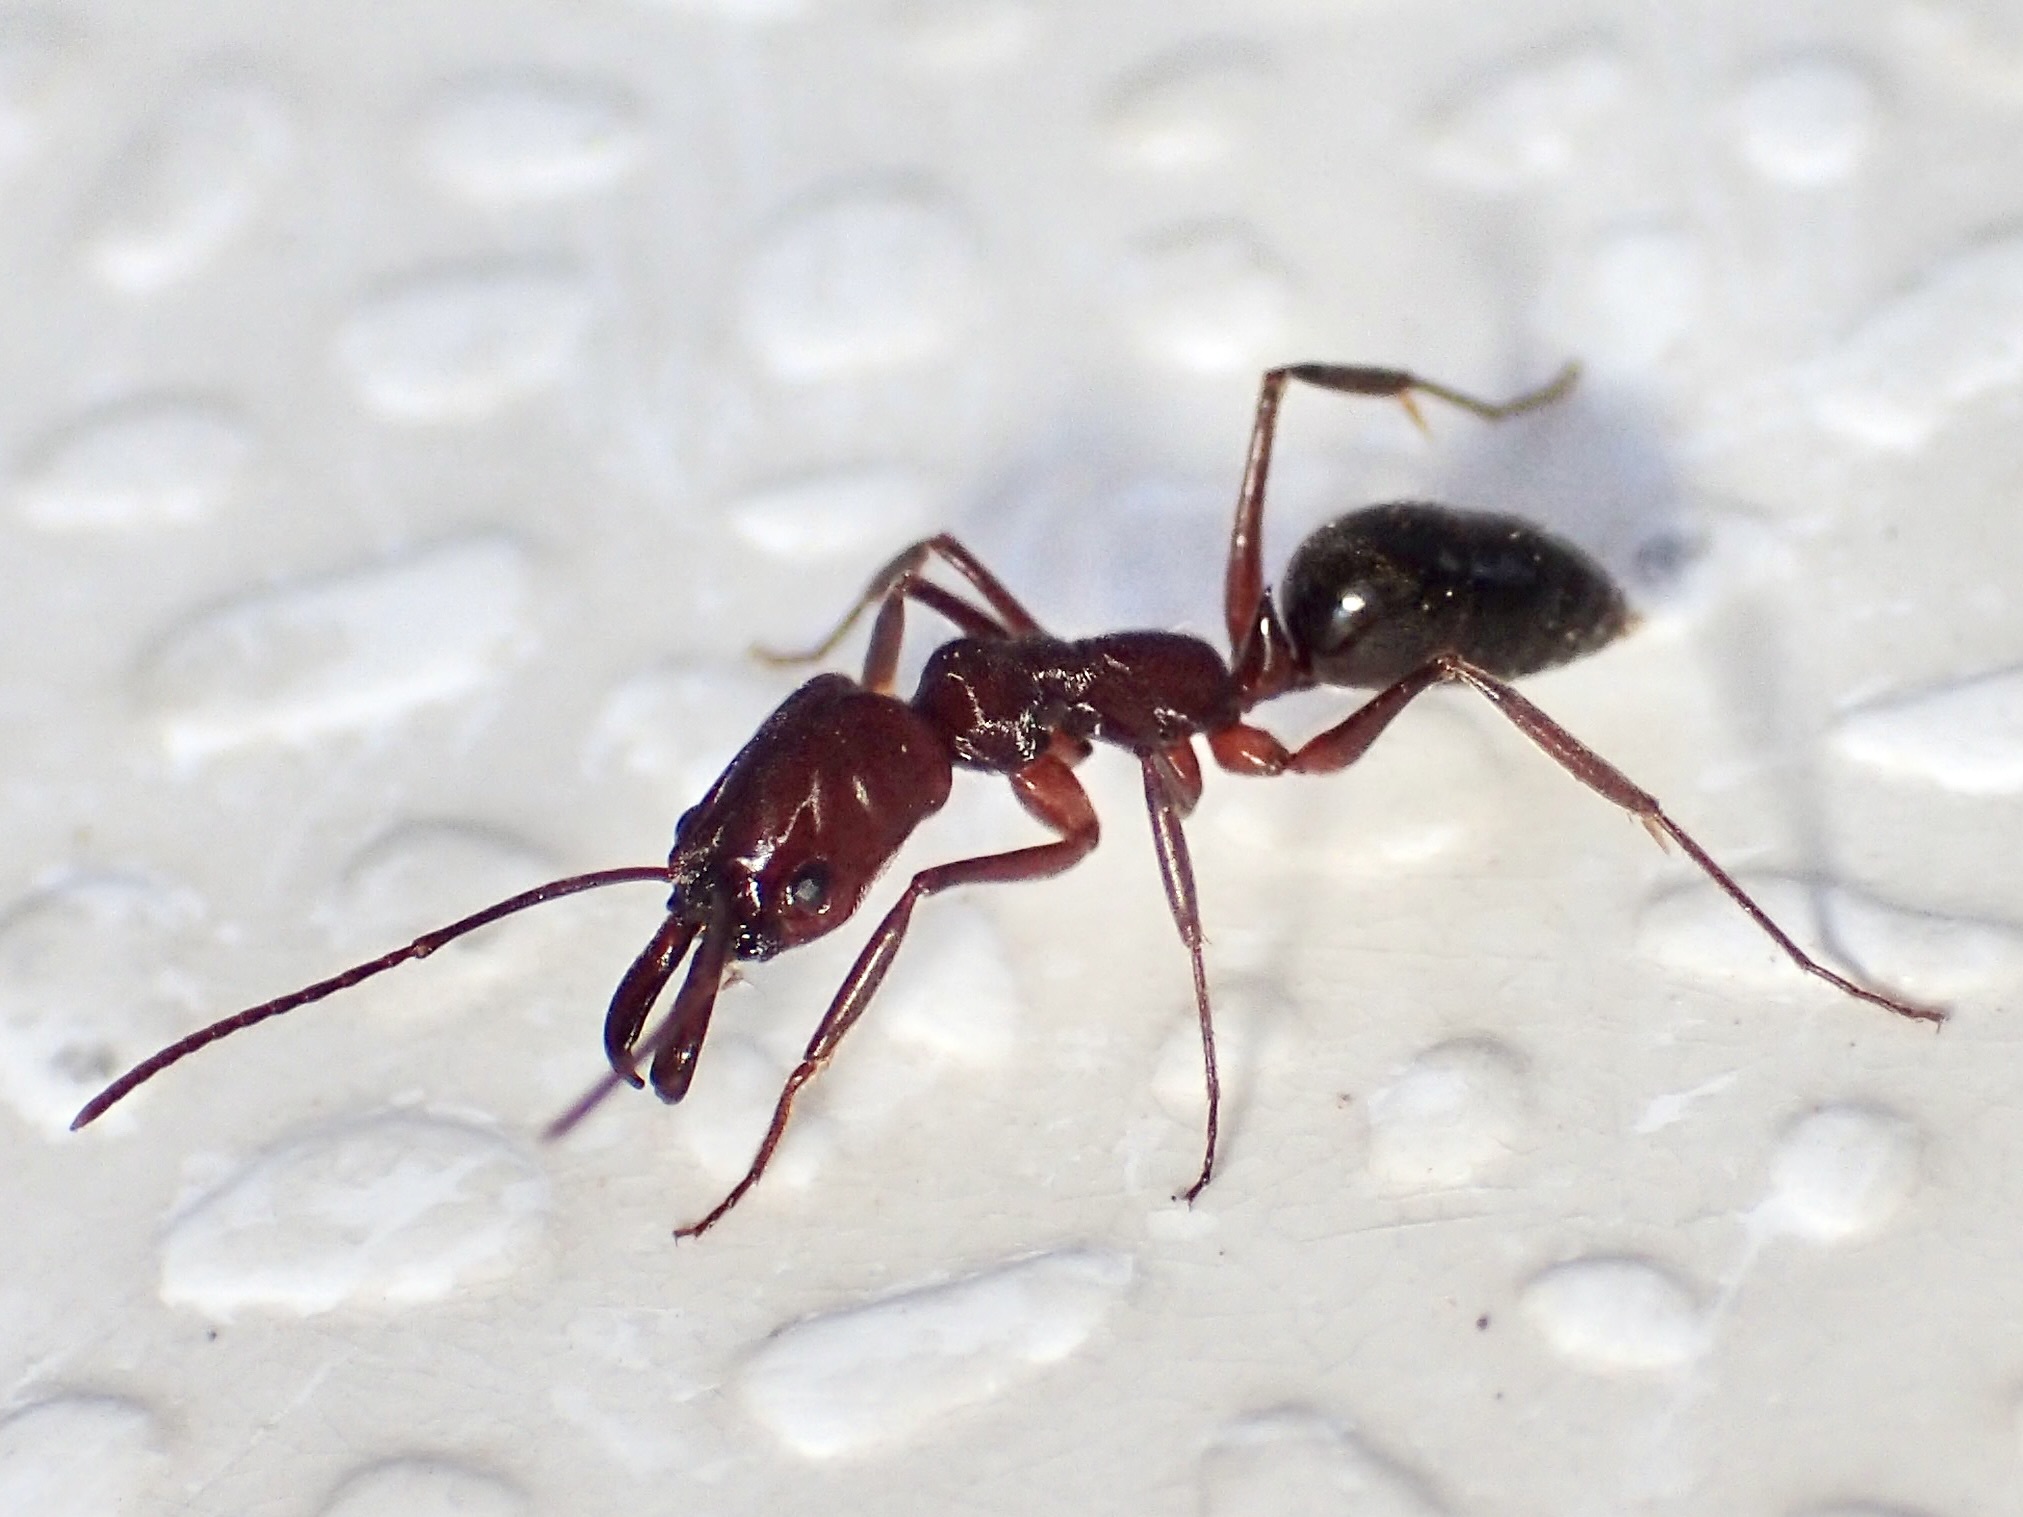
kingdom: Animalia
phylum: Arthropoda
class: Insecta
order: Hymenoptera
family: Formicidae
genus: Odontomachus
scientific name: Odontomachus
